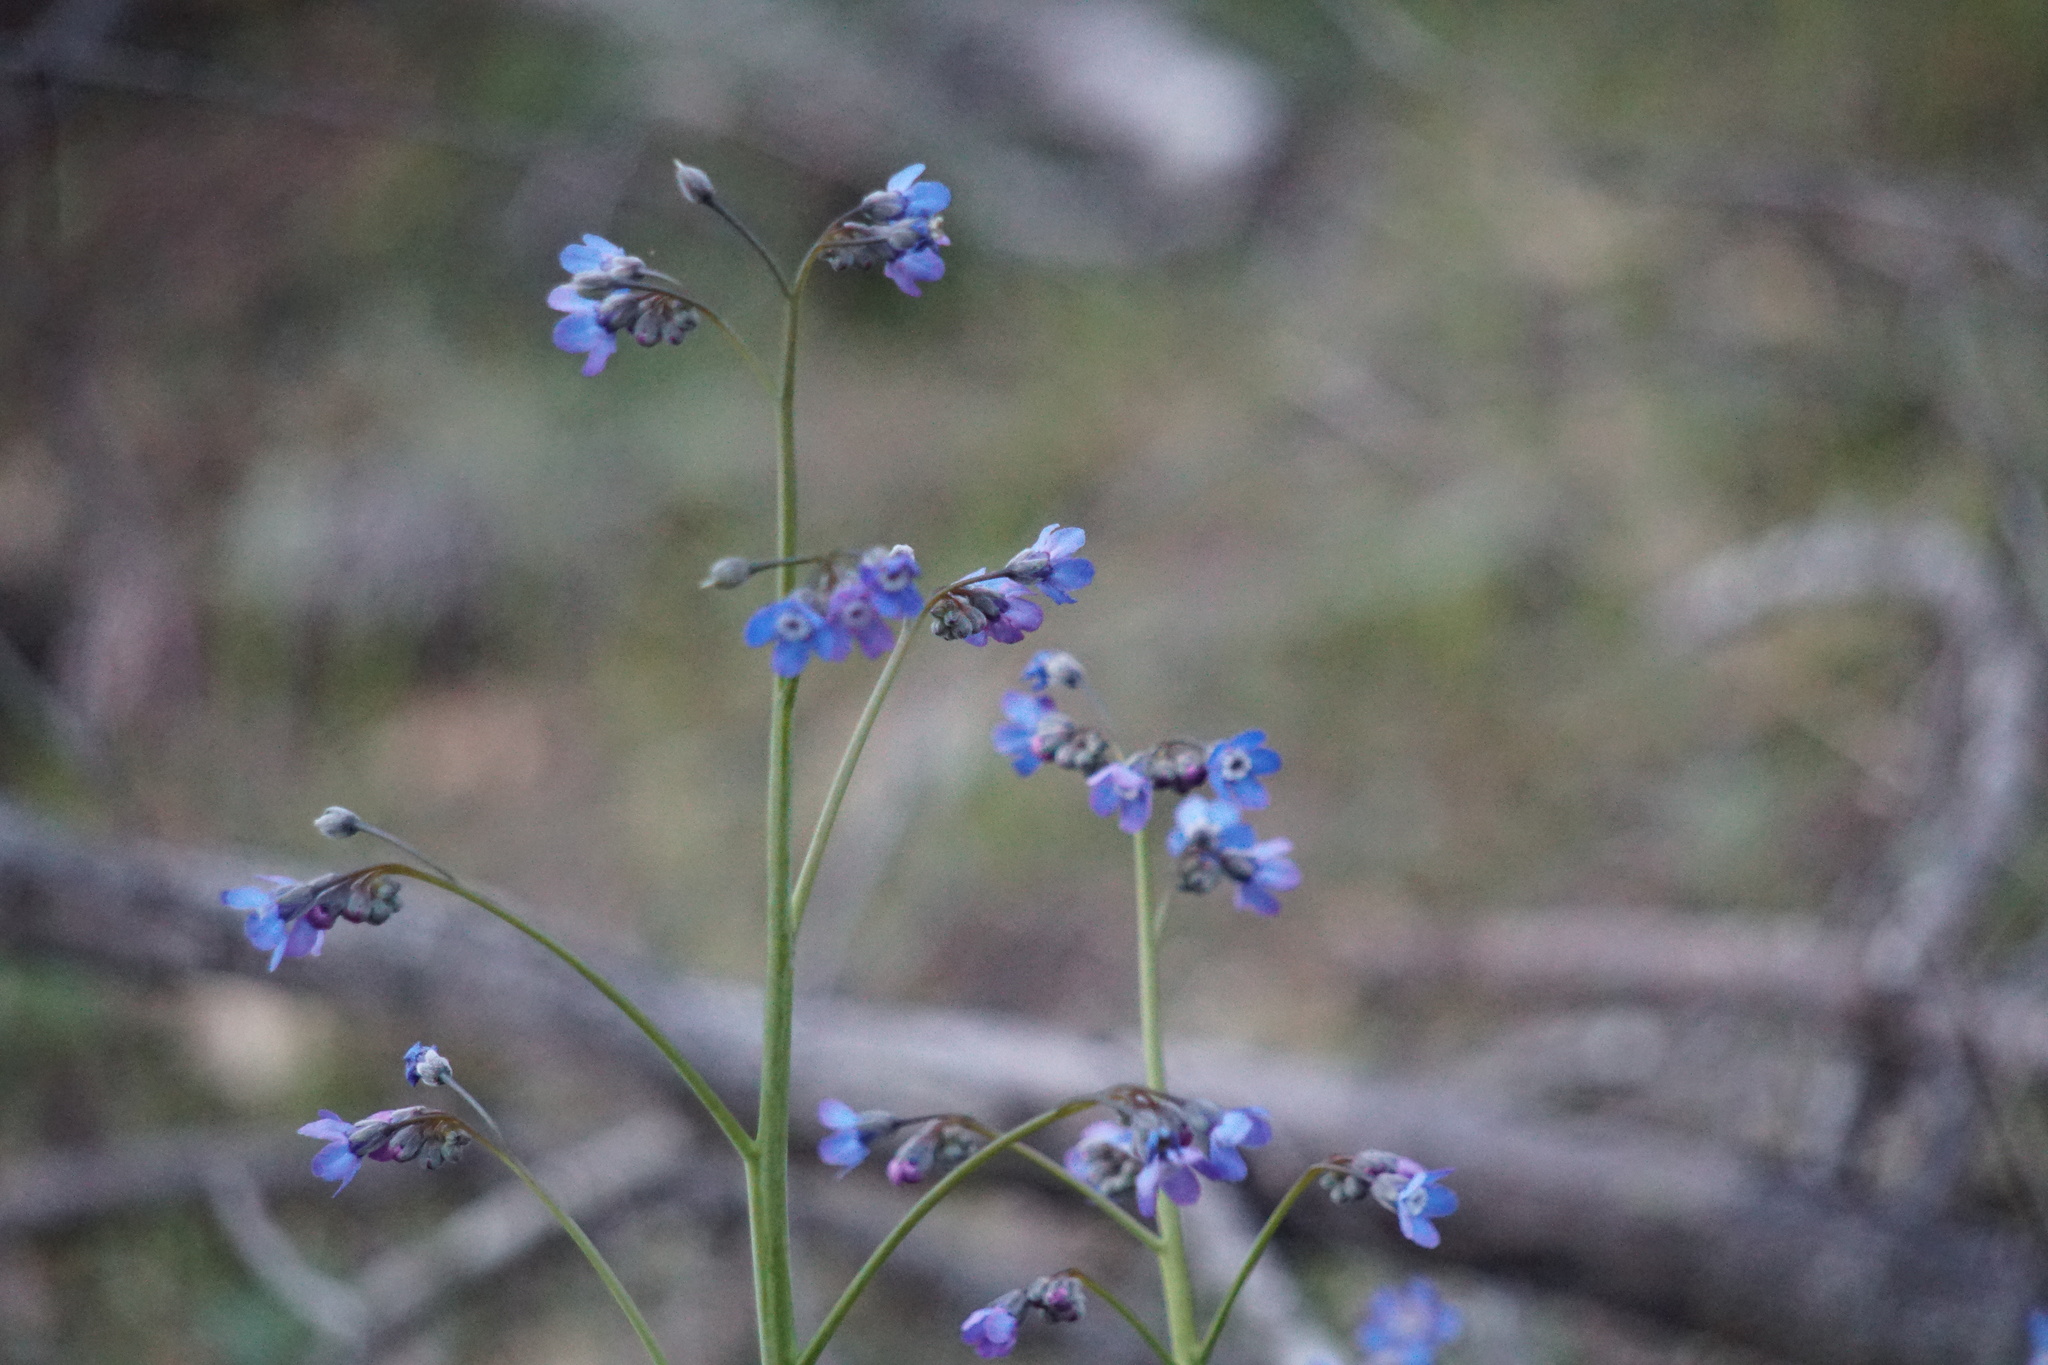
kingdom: Plantae
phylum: Tracheophyta
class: Magnoliopsida
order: Boraginales
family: Boraginaceae
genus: Adelinia
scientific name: Adelinia grande
